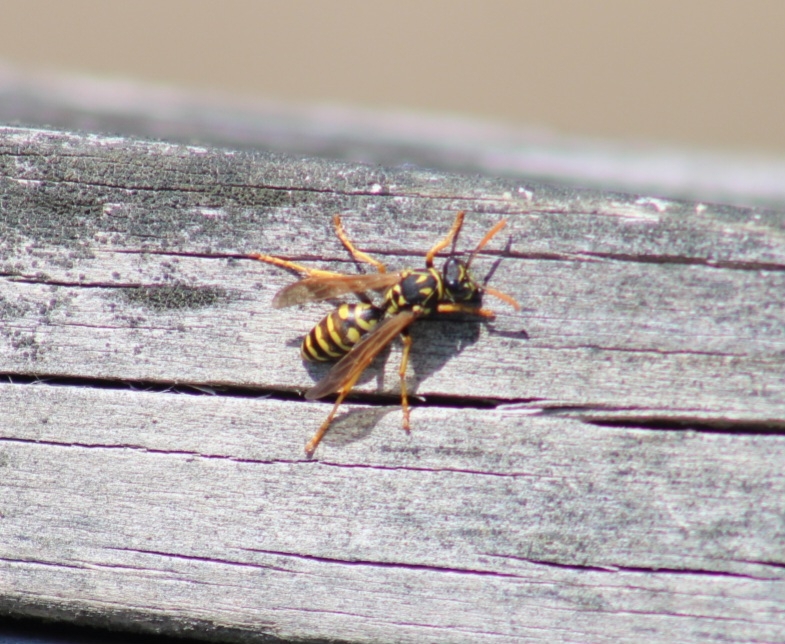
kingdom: Animalia
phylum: Arthropoda
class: Insecta
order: Hymenoptera
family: Eumenidae
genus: Polistes
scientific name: Polistes dominula
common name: Paper wasp
